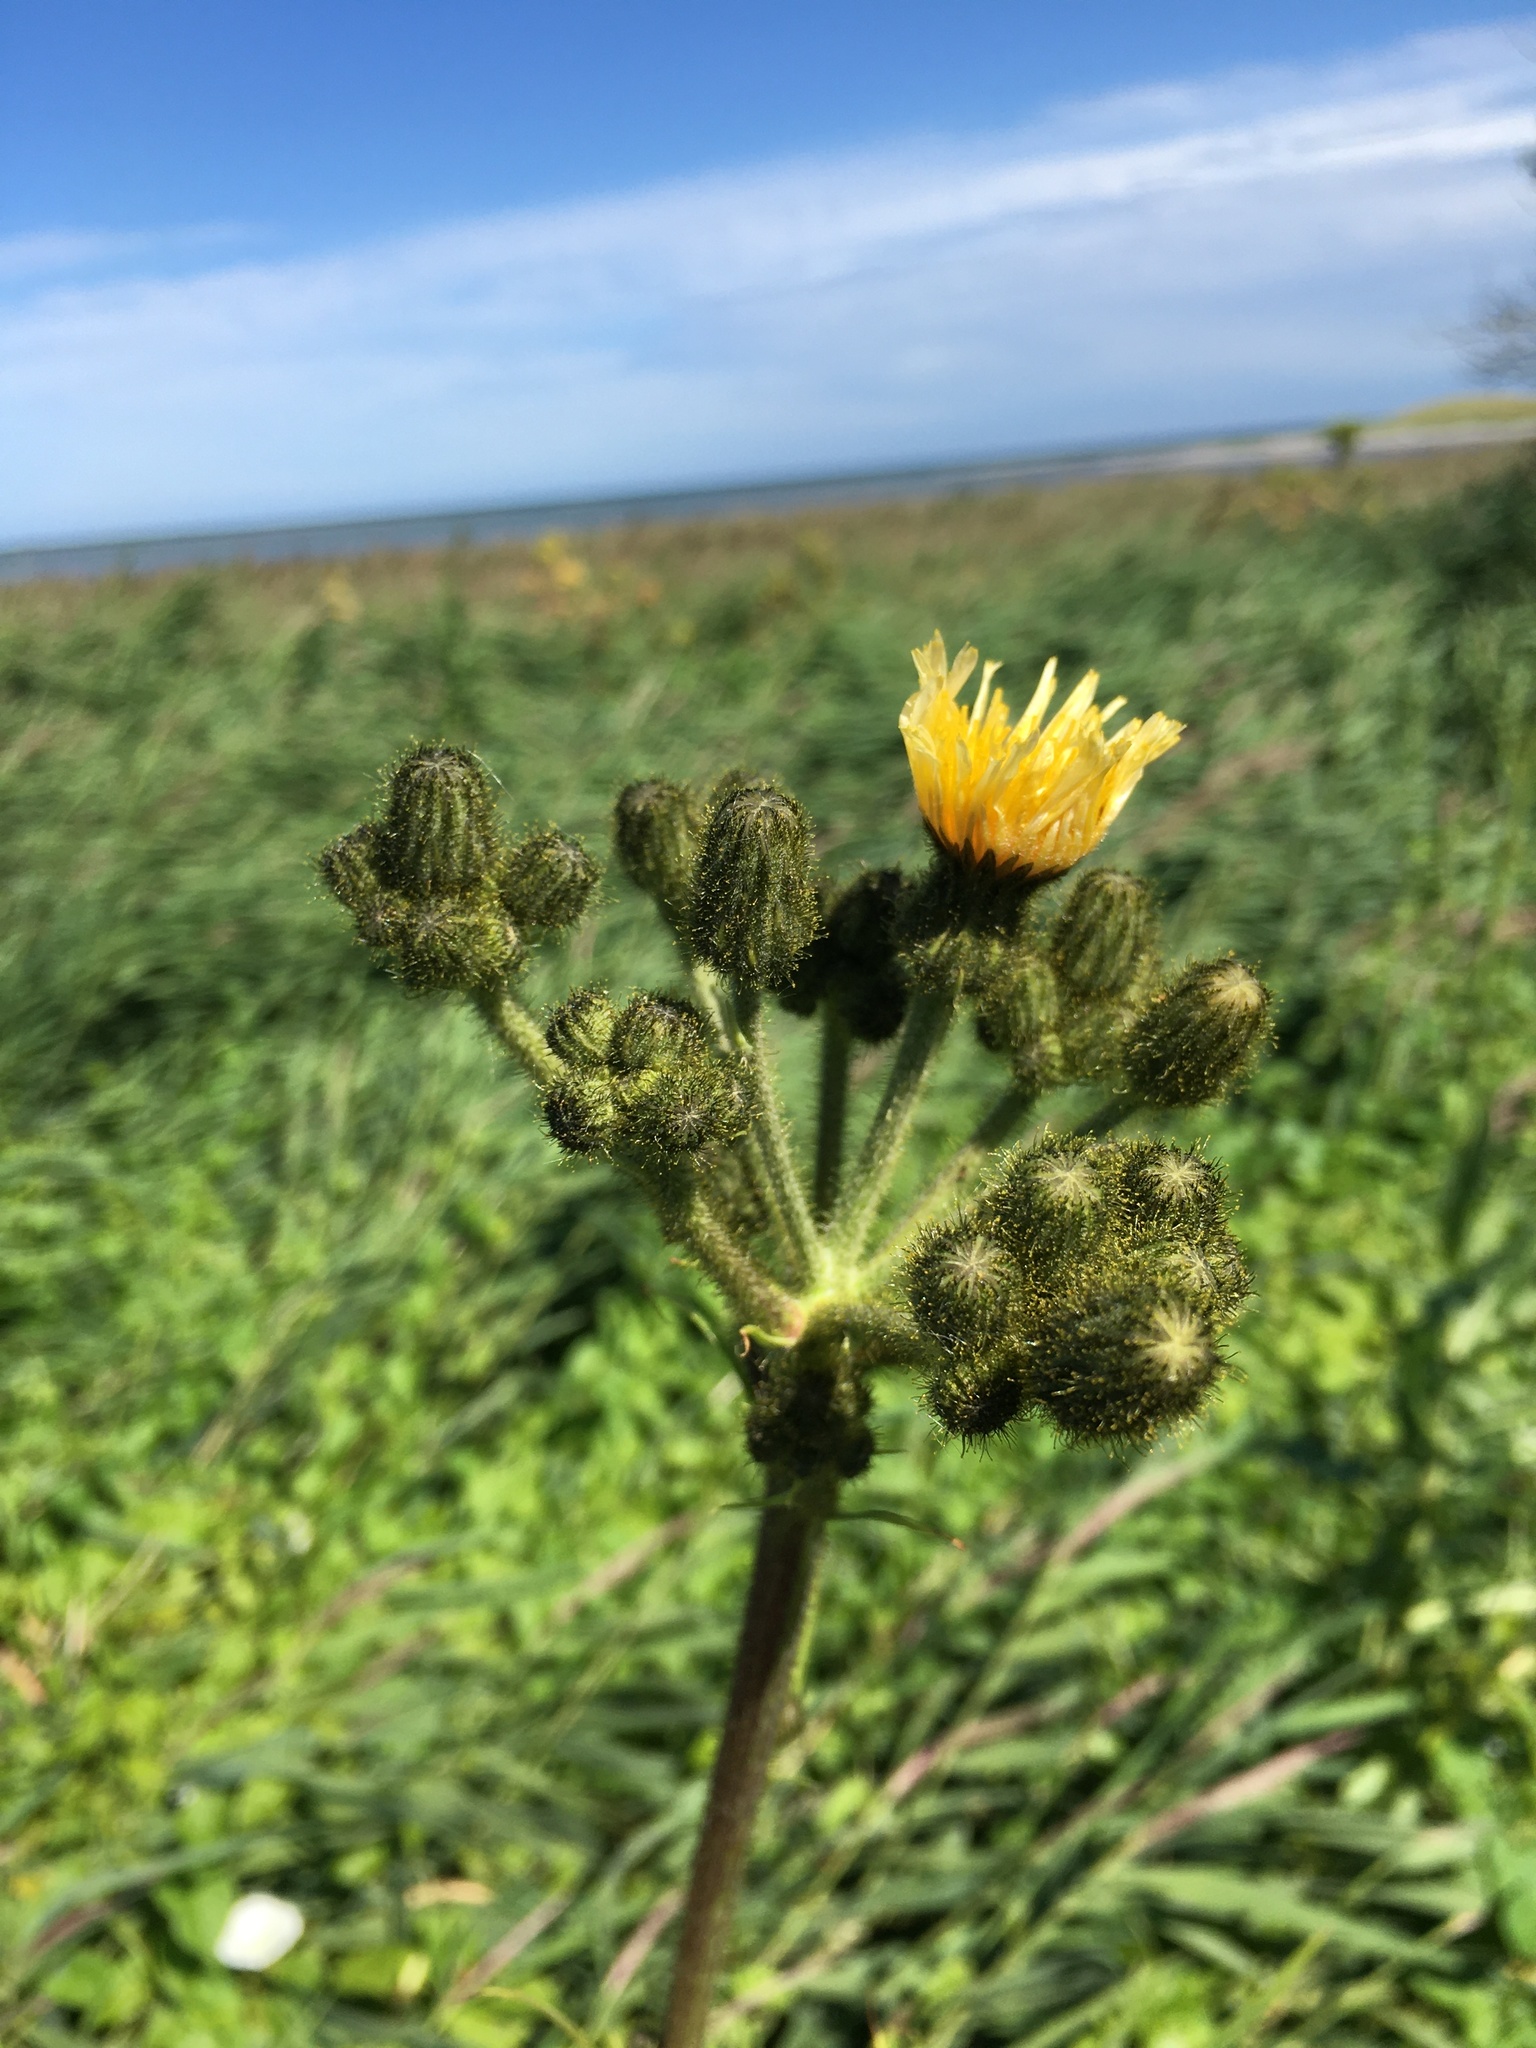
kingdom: Plantae
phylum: Tracheophyta
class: Magnoliopsida
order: Asterales
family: Asteraceae
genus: Sonchus
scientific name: Sonchus arvensis
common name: Perennial sow-thistle
